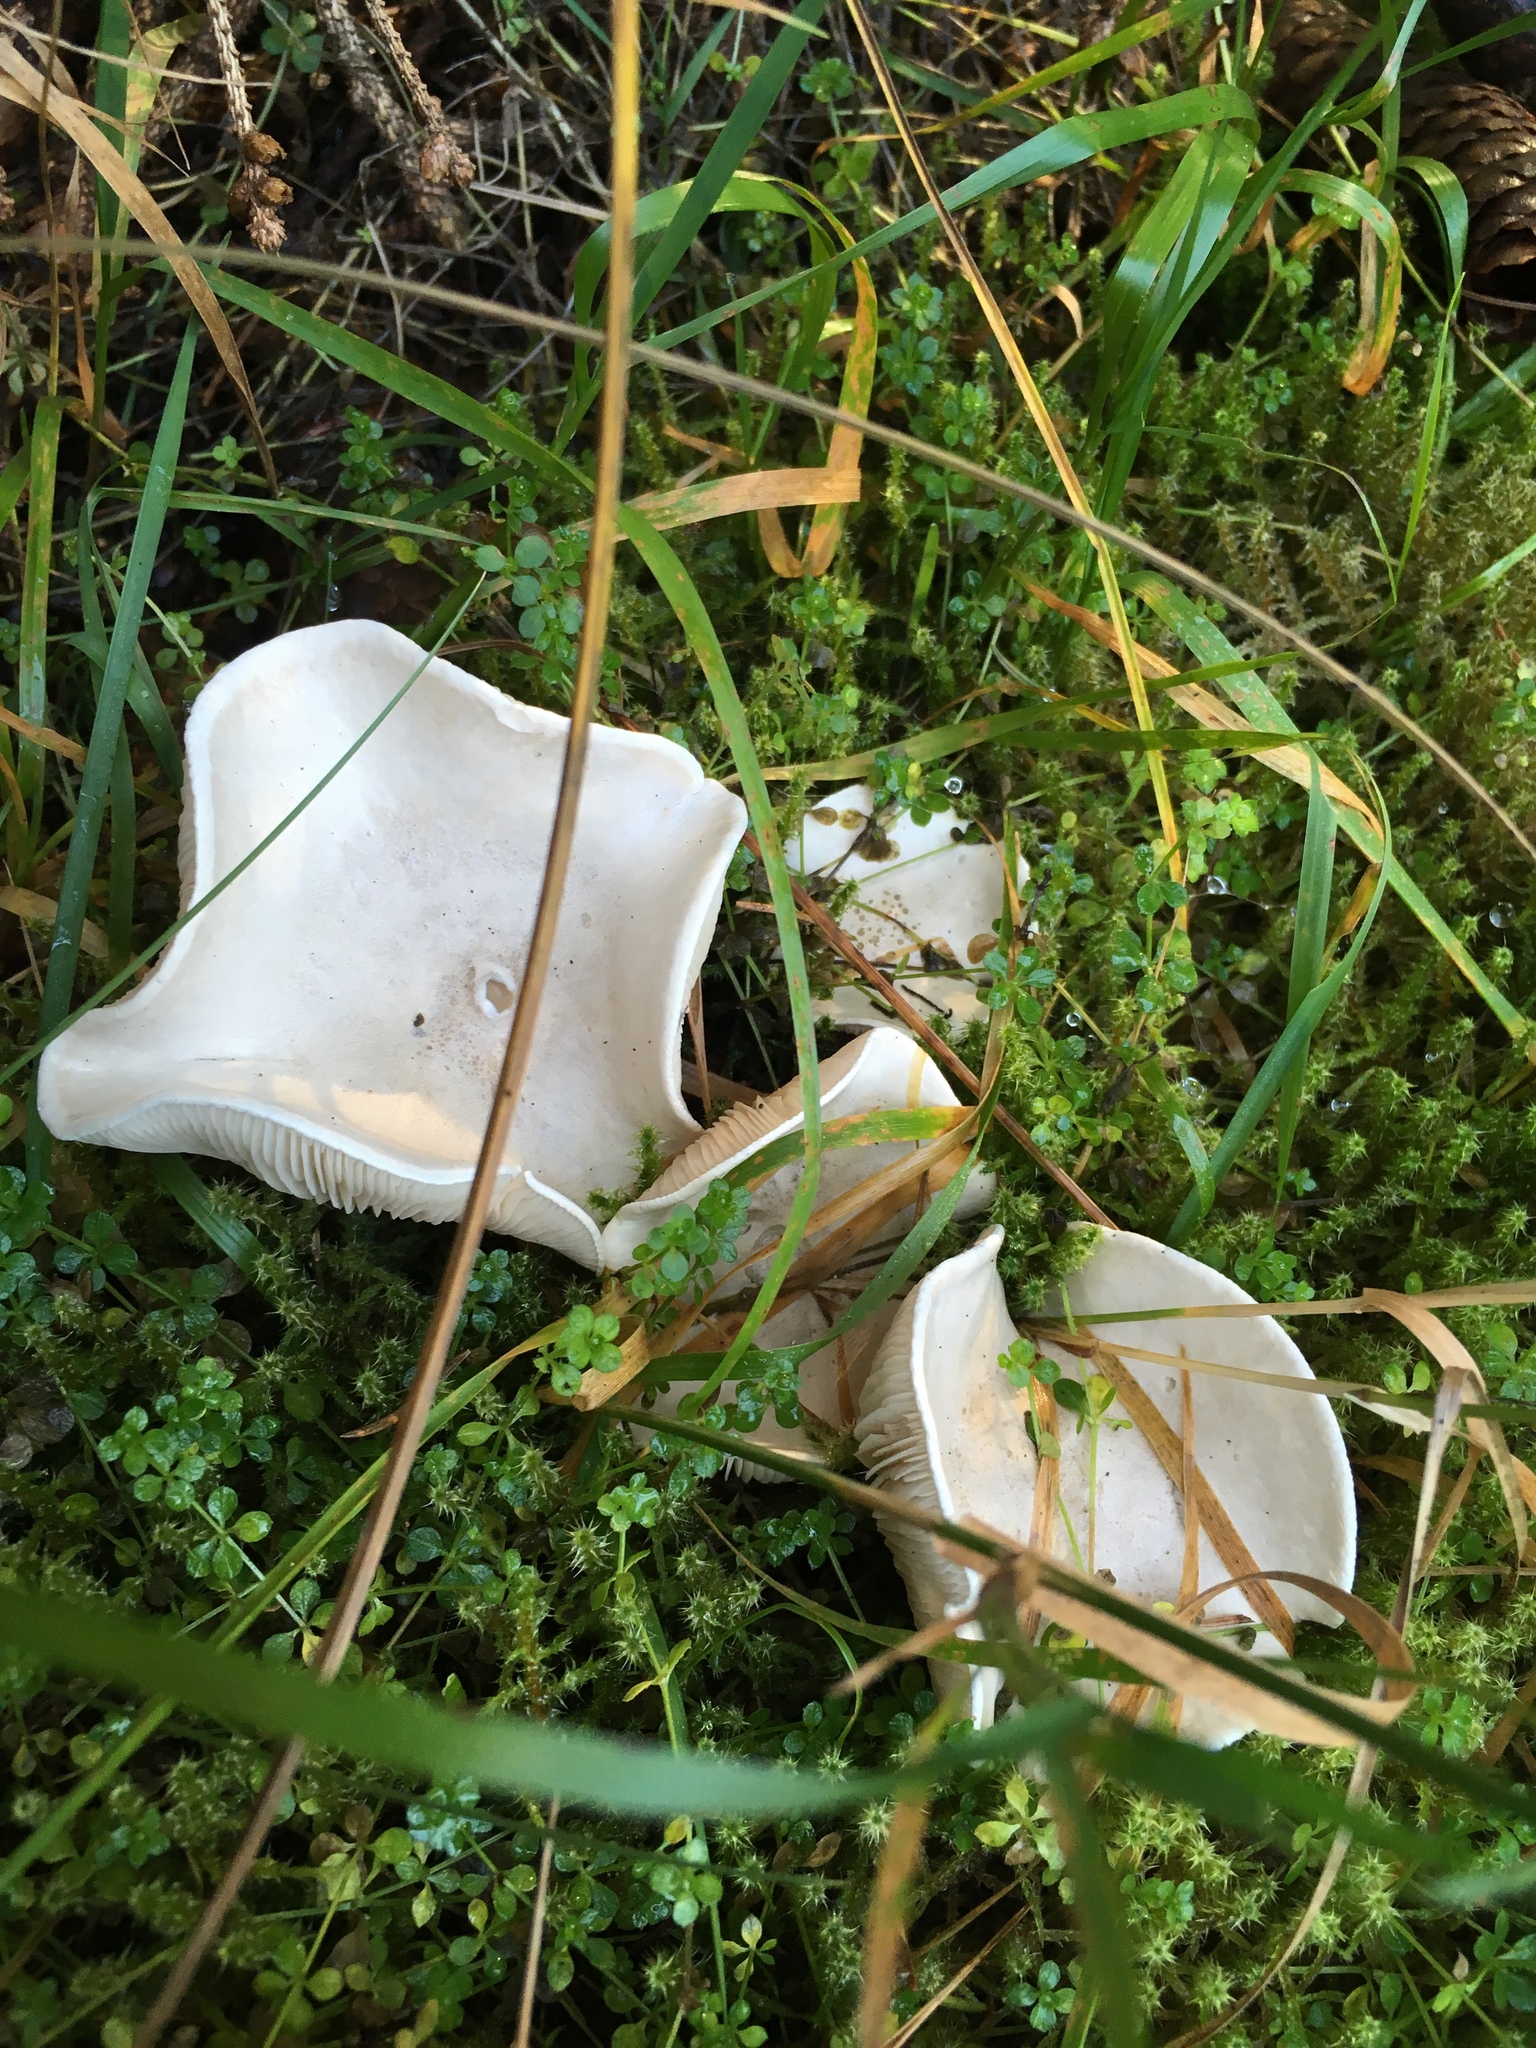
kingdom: Fungi
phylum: Basidiomycota
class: Agaricomycetes
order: Agaricales
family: Entolomataceae
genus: Clitopilus
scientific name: Clitopilus prunulus
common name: The miller
